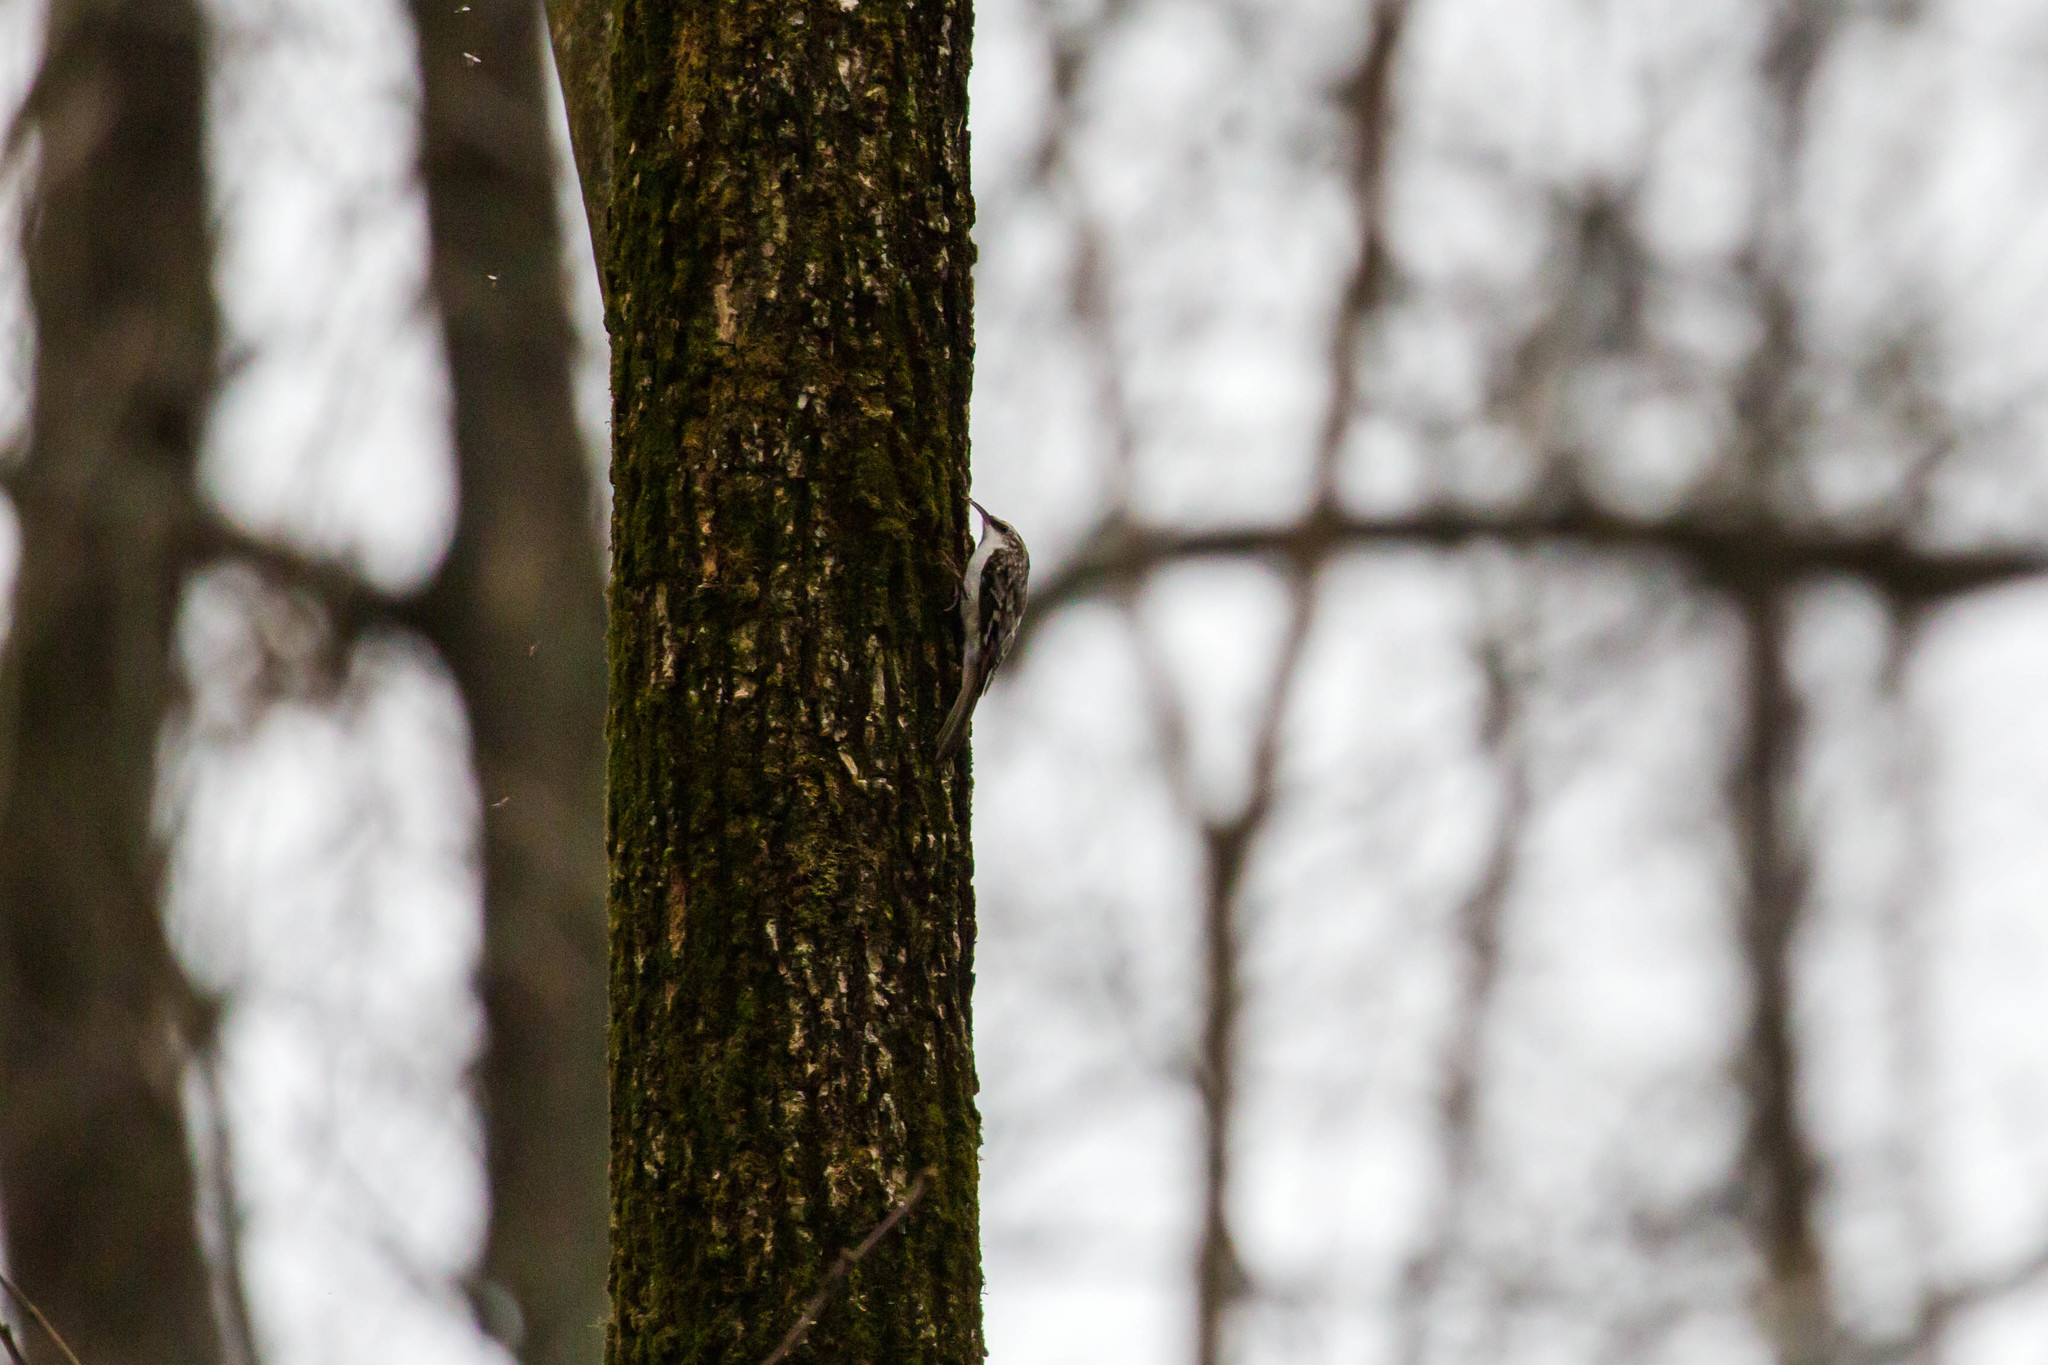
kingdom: Animalia
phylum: Chordata
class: Aves
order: Passeriformes
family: Certhiidae
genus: Certhia
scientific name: Certhia americana
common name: Brown creeper
